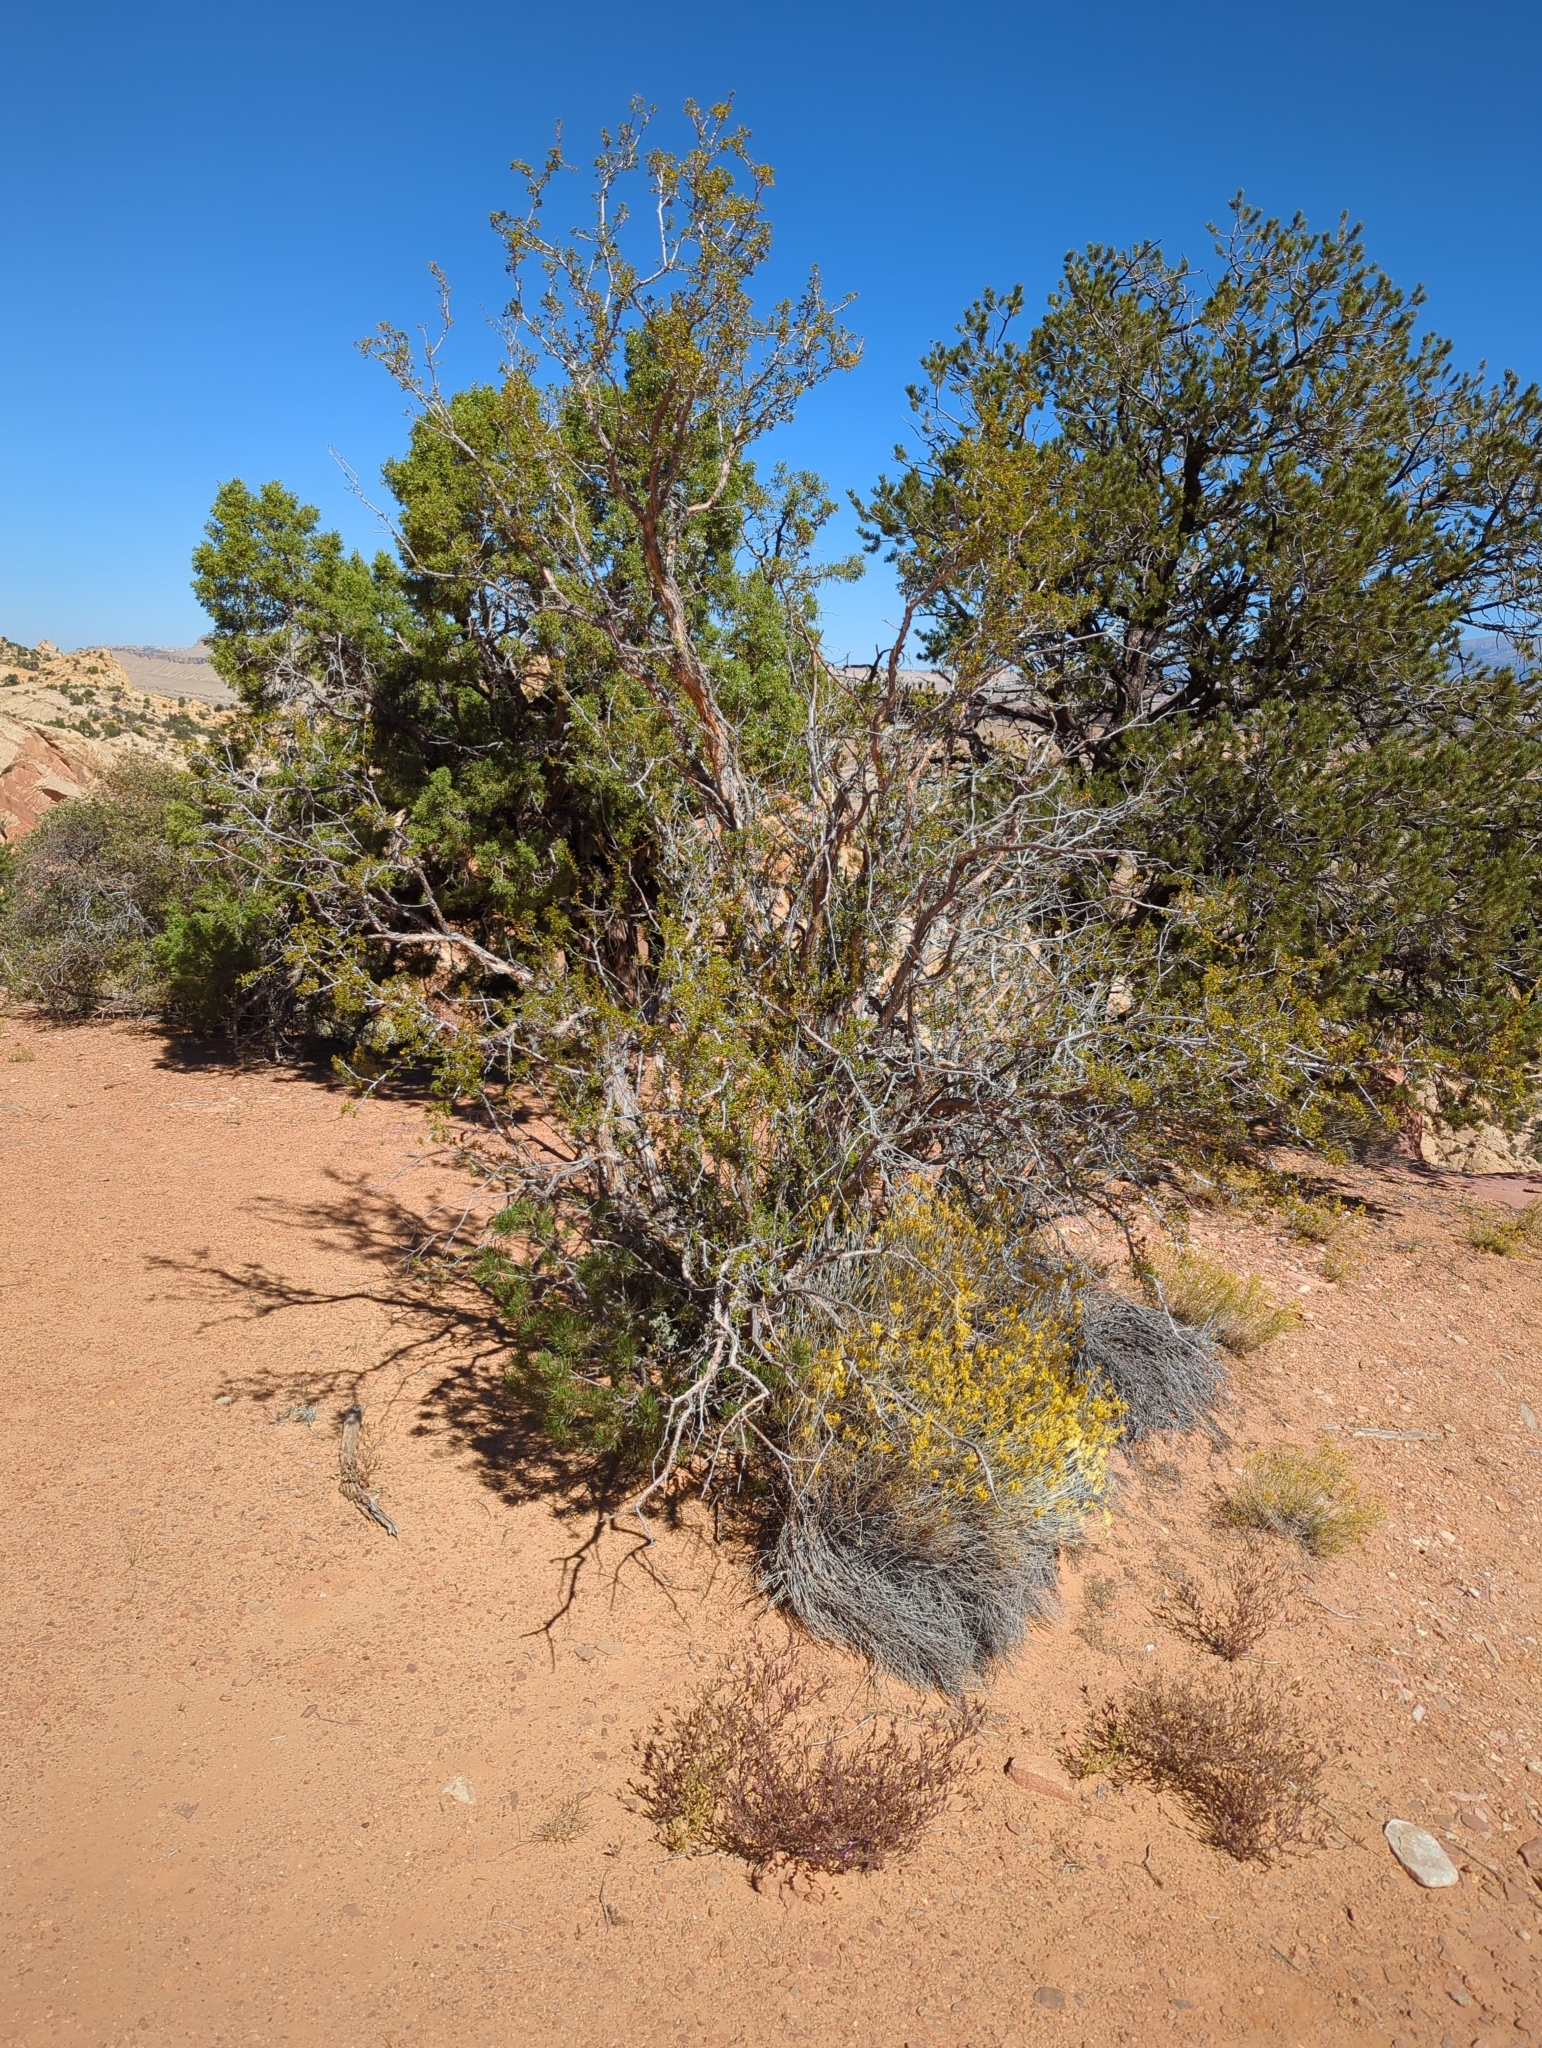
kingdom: Plantae
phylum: Tracheophyta
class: Magnoliopsida
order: Rosales
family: Rosaceae
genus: Purshia
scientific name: Purshia stansburiana
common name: Stansbury's cliffrose
